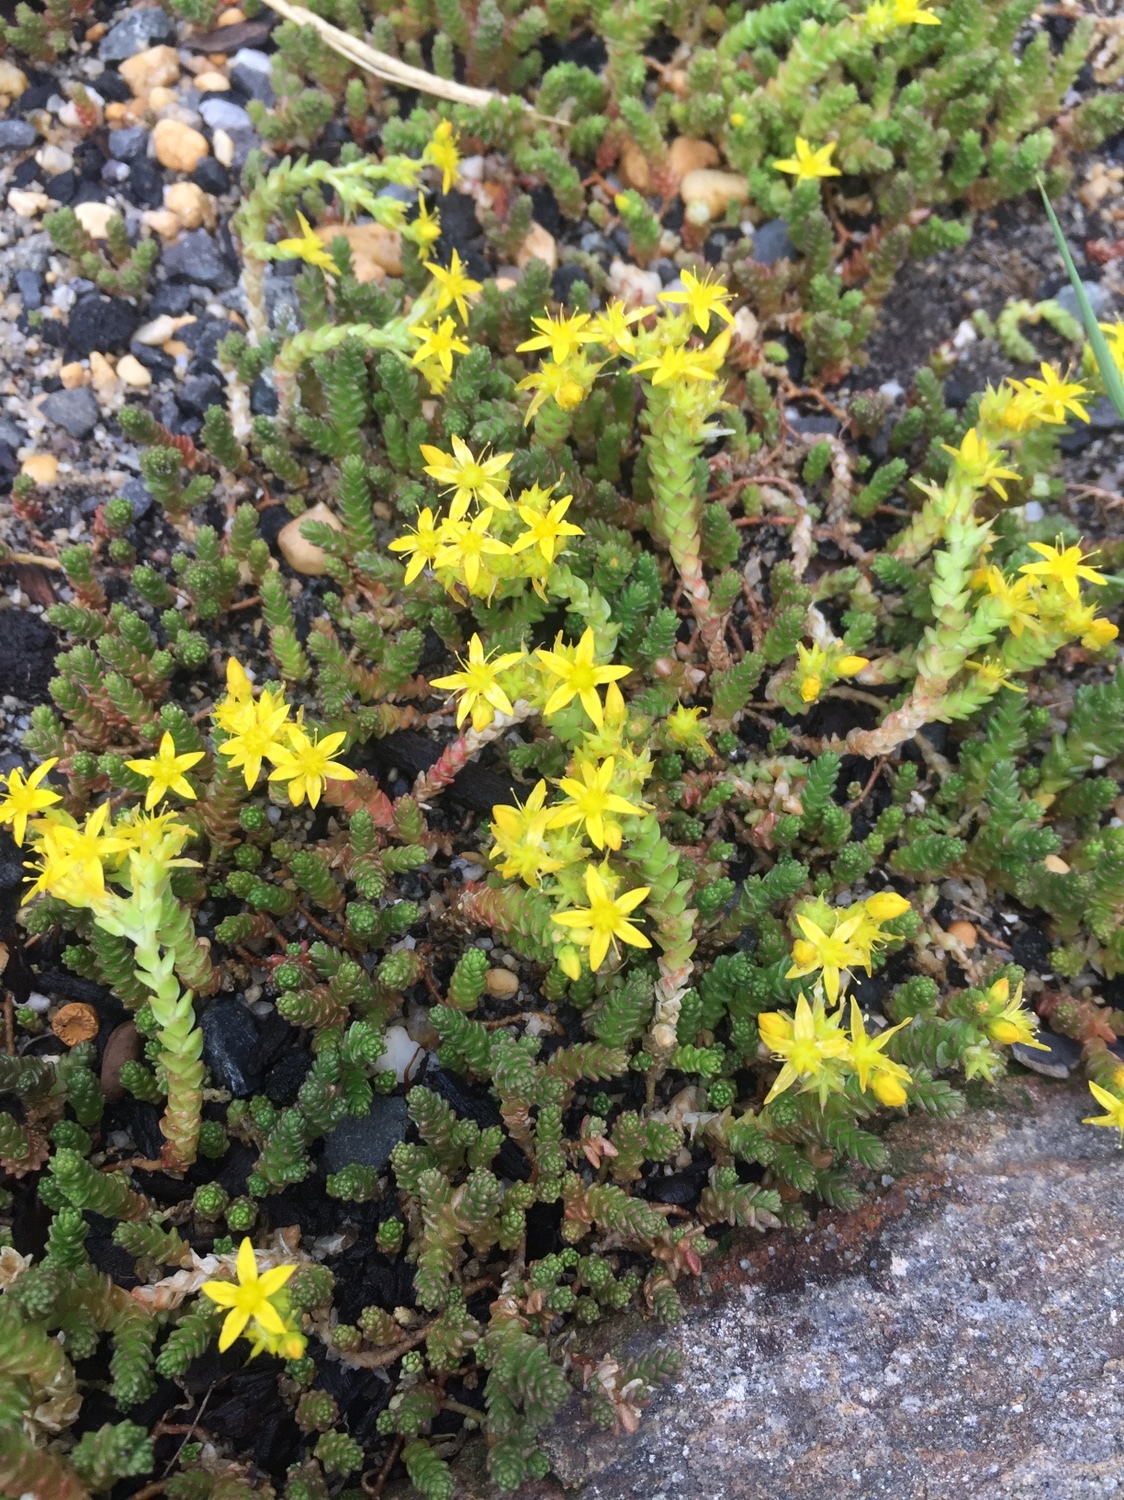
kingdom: Plantae
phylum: Tracheophyta
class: Magnoliopsida
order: Saxifragales
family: Crassulaceae
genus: Sedum
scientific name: Sedum acre
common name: Biting stonecrop
